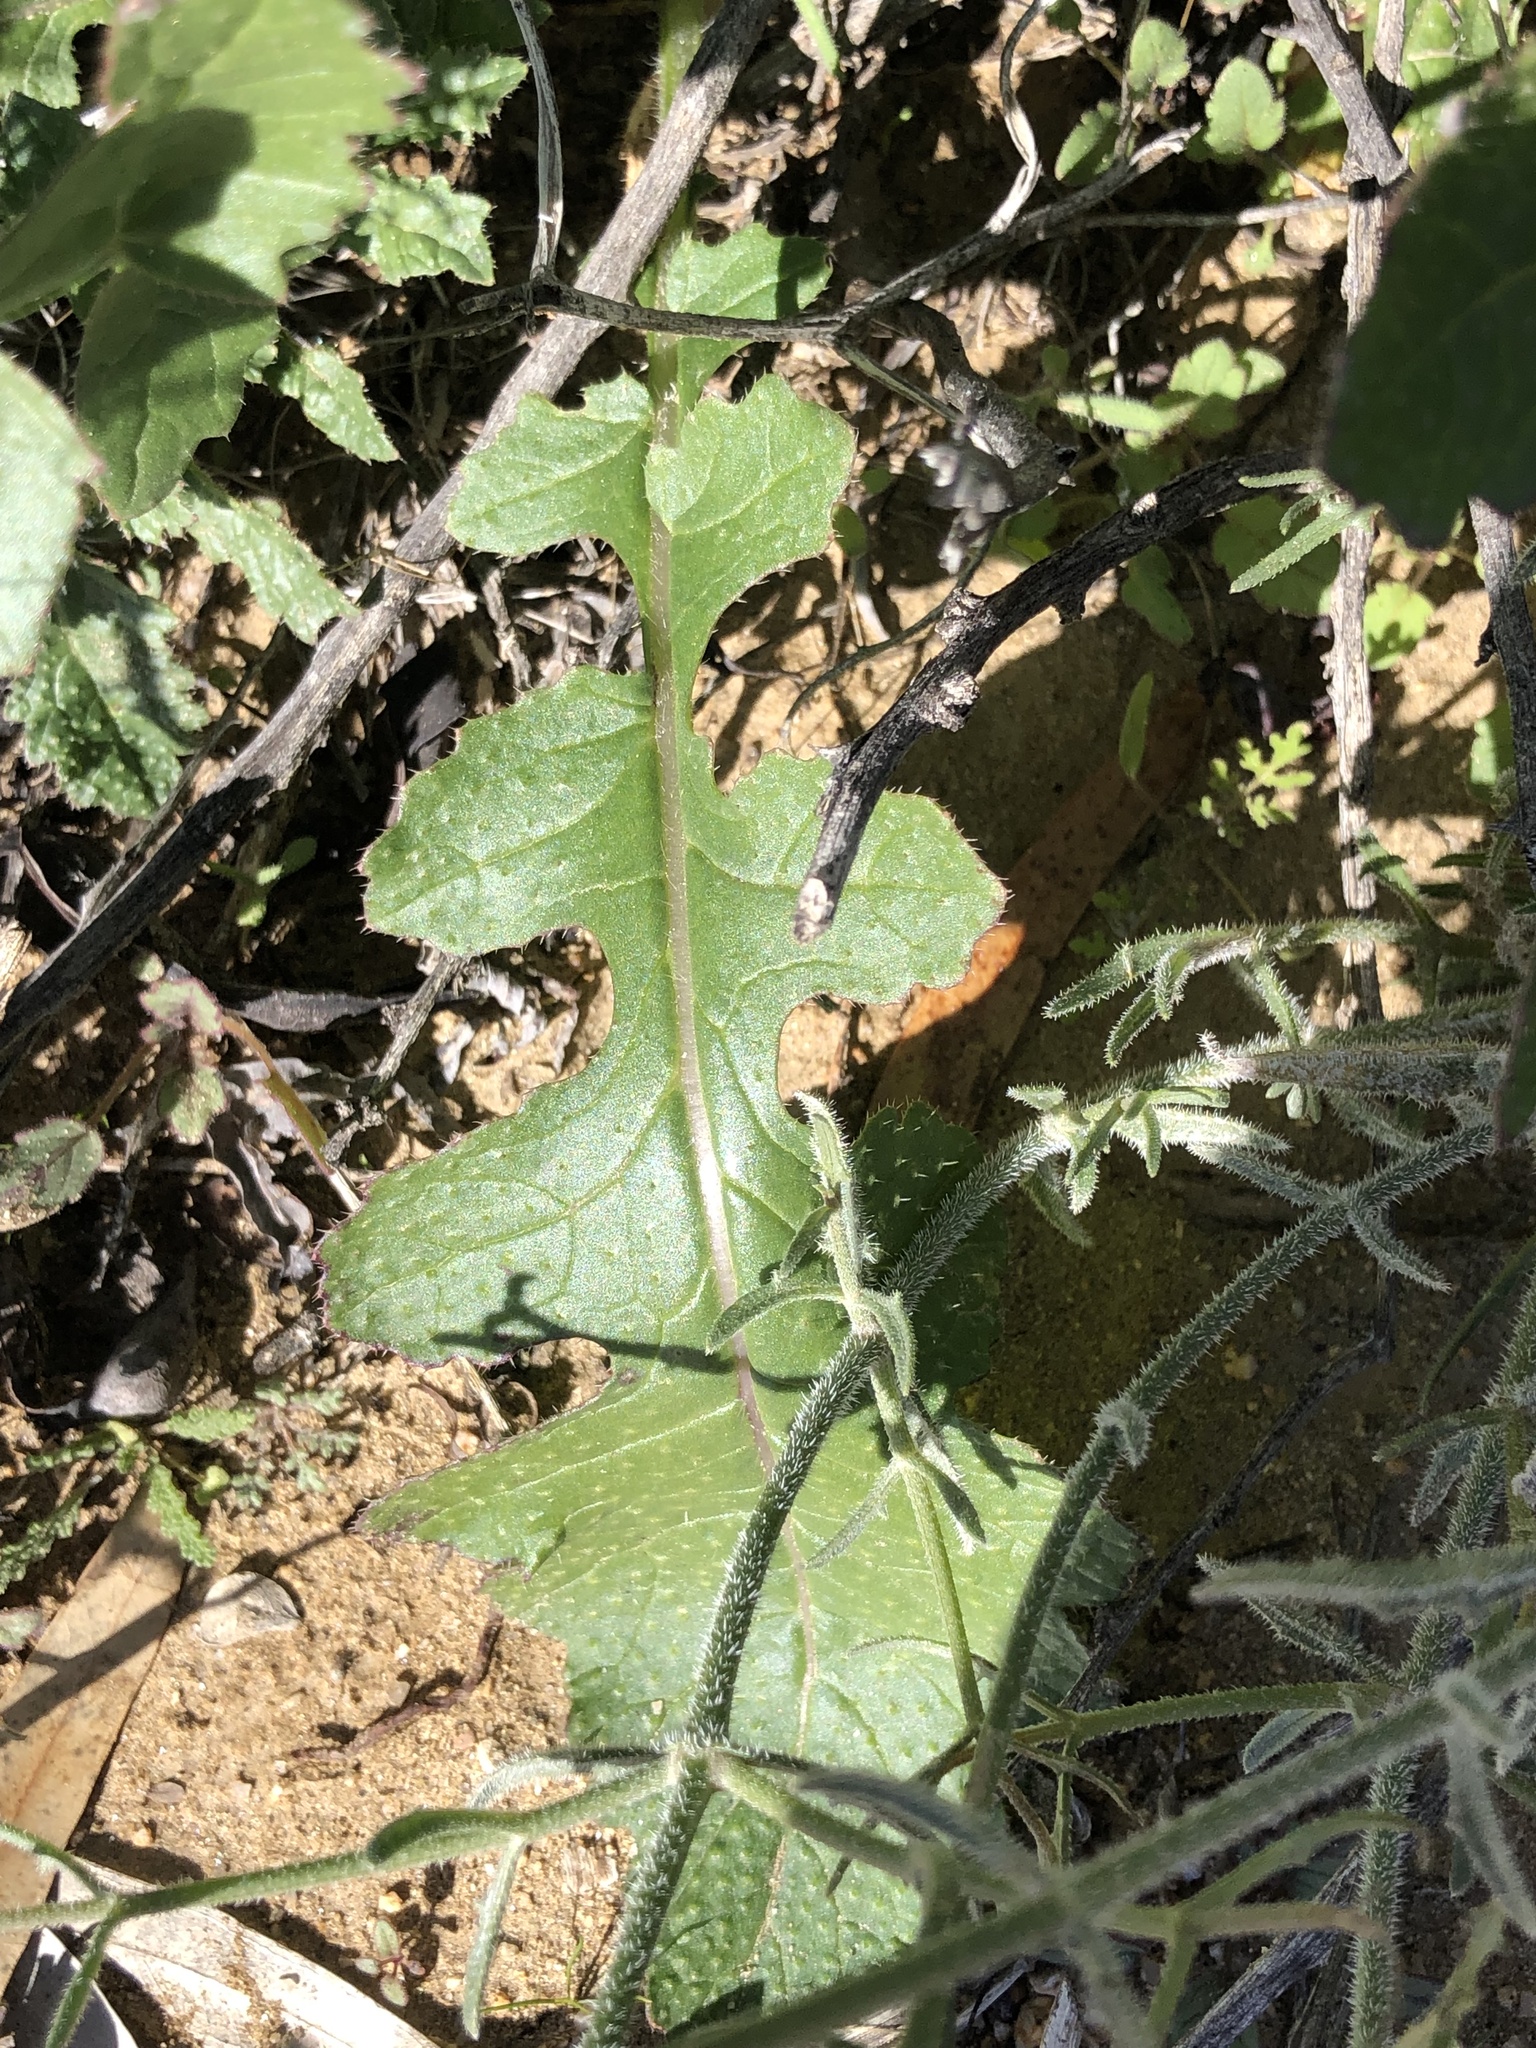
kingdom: Plantae
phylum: Tracheophyta
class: Magnoliopsida
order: Brassicales
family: Brassicaceae
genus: Brassica
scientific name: Brassica tournefortii
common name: Pale cabbage
